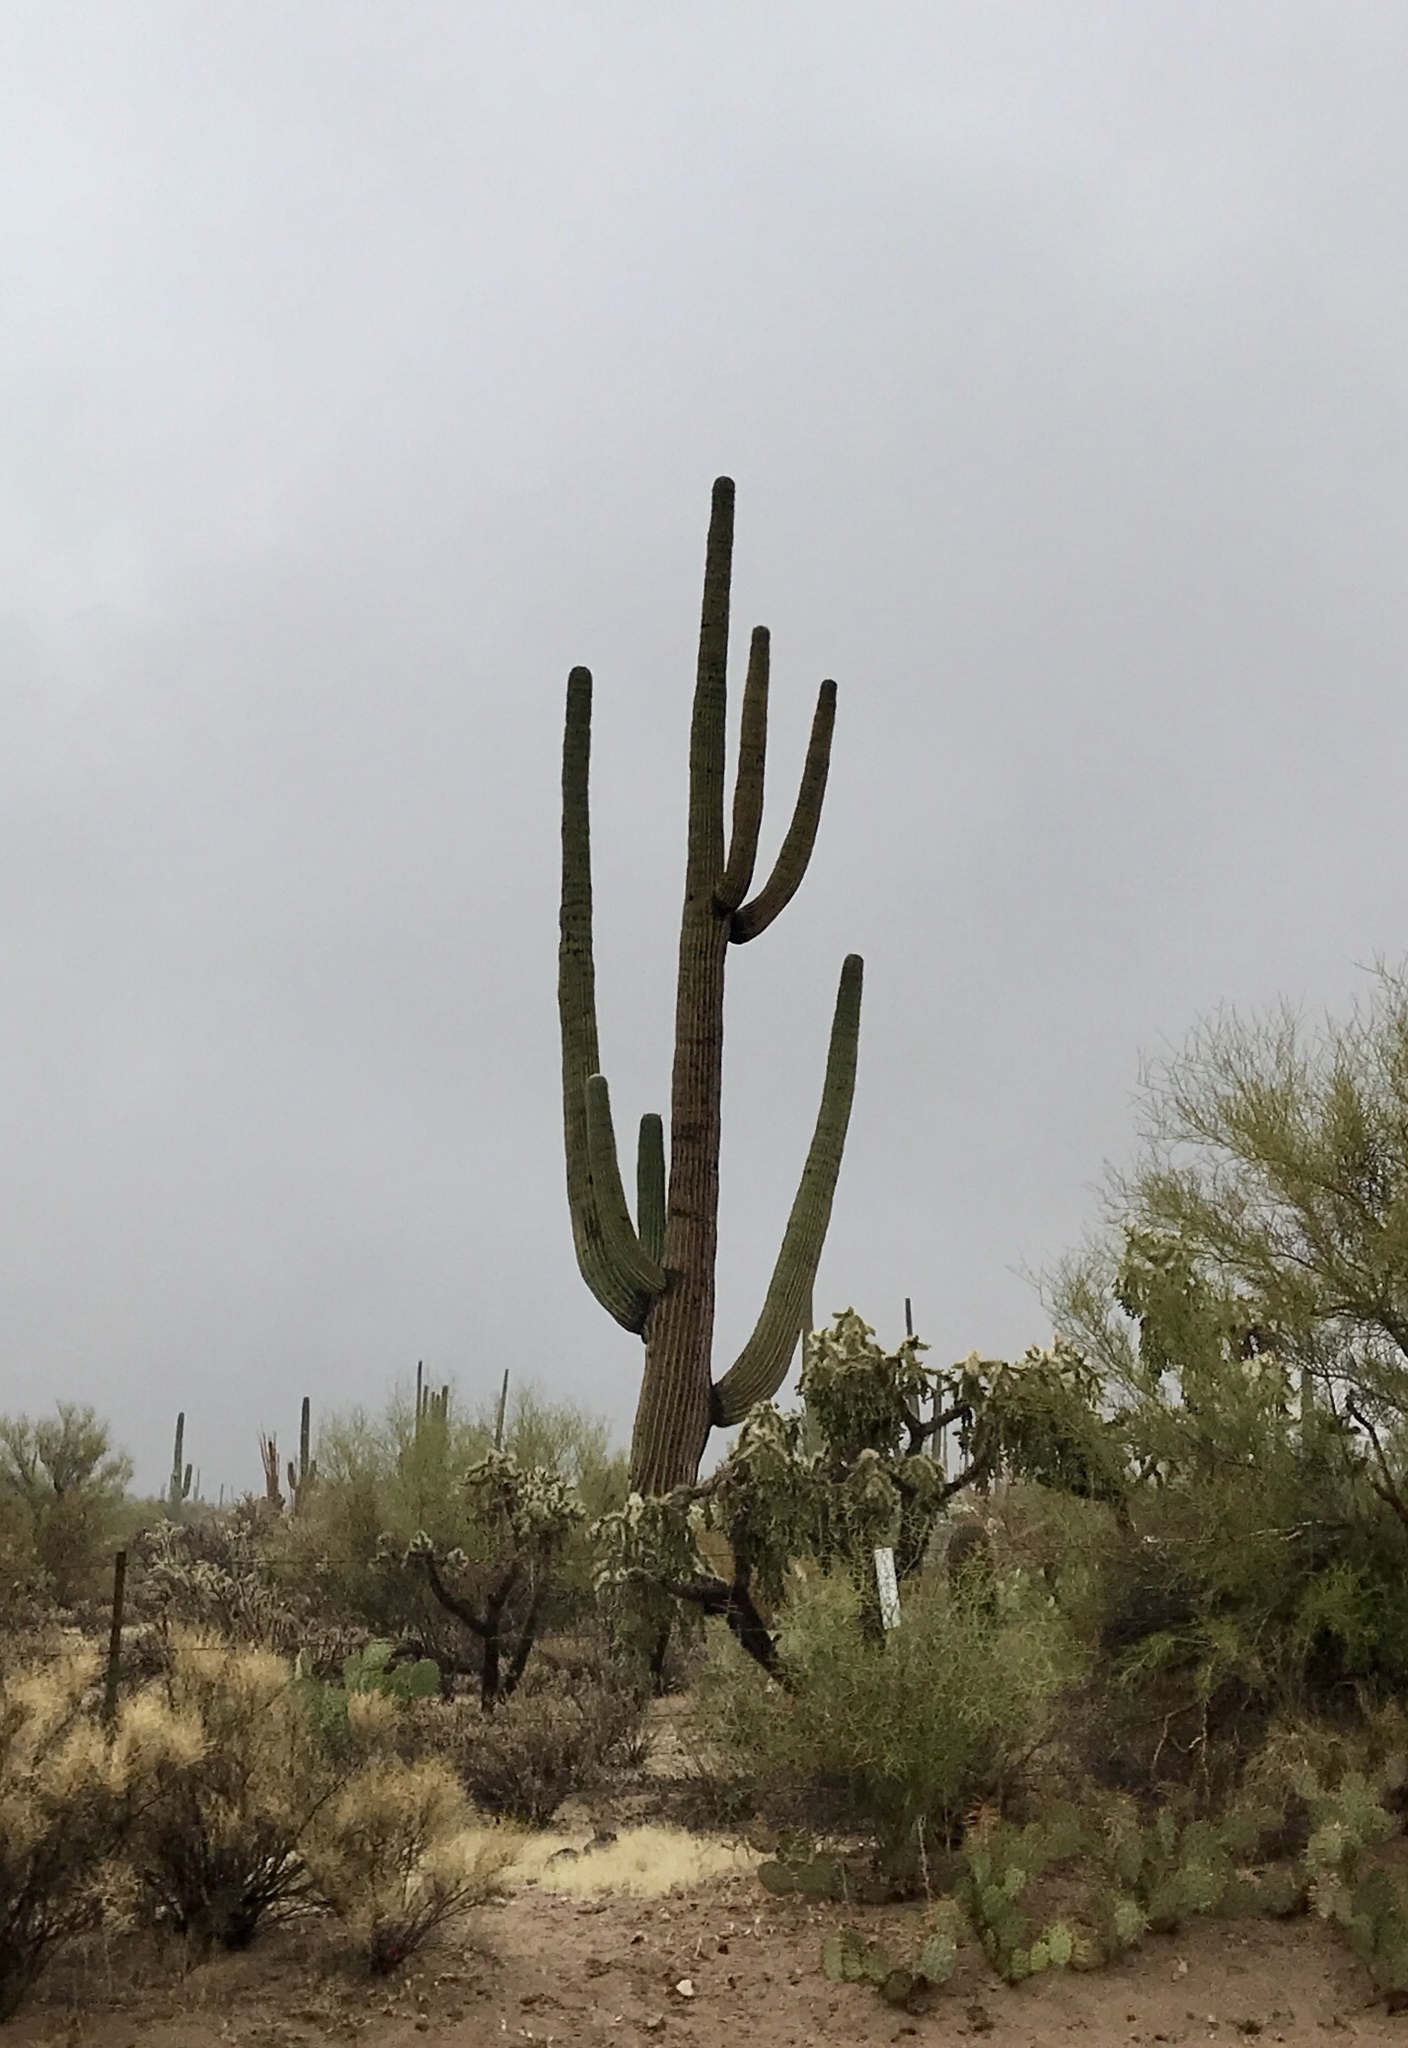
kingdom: Plantae
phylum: Tracheophyta
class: Magnoliopsida
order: Caryophyllales
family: Cactaceae
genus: Carnegiea
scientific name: Carnegiea gigantea
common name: Saguaro
